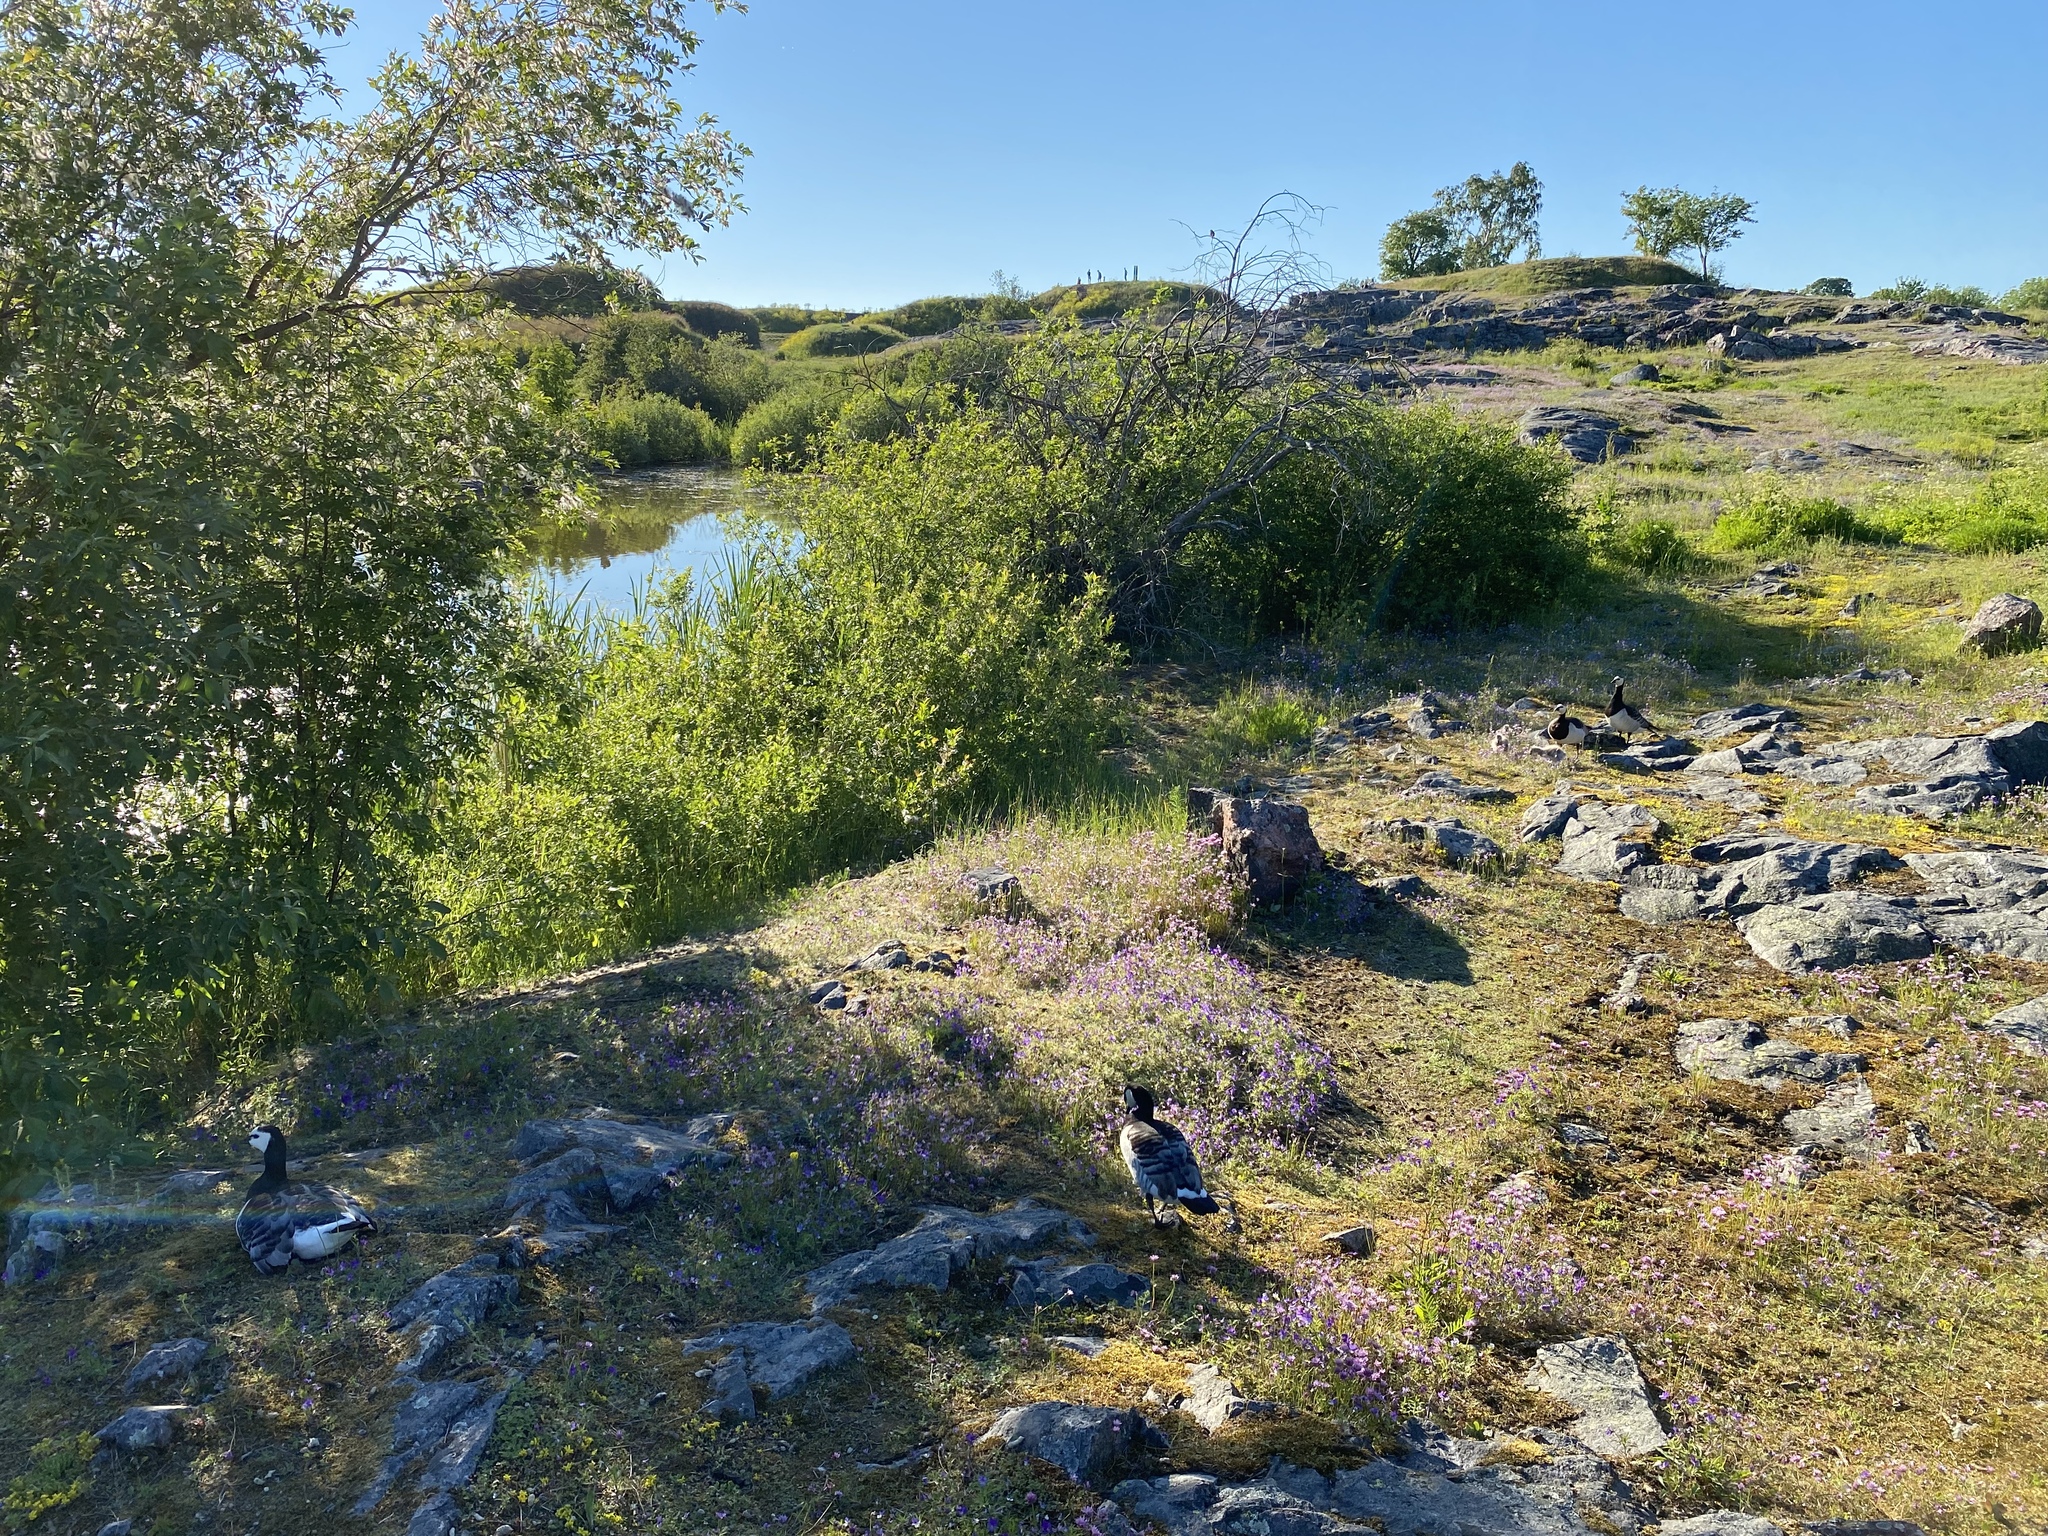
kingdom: Animalia
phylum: Chordata
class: Aves
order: Anseriformes
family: Anatidae
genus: Branta
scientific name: Branta leucopsis
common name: Barnacle goose
